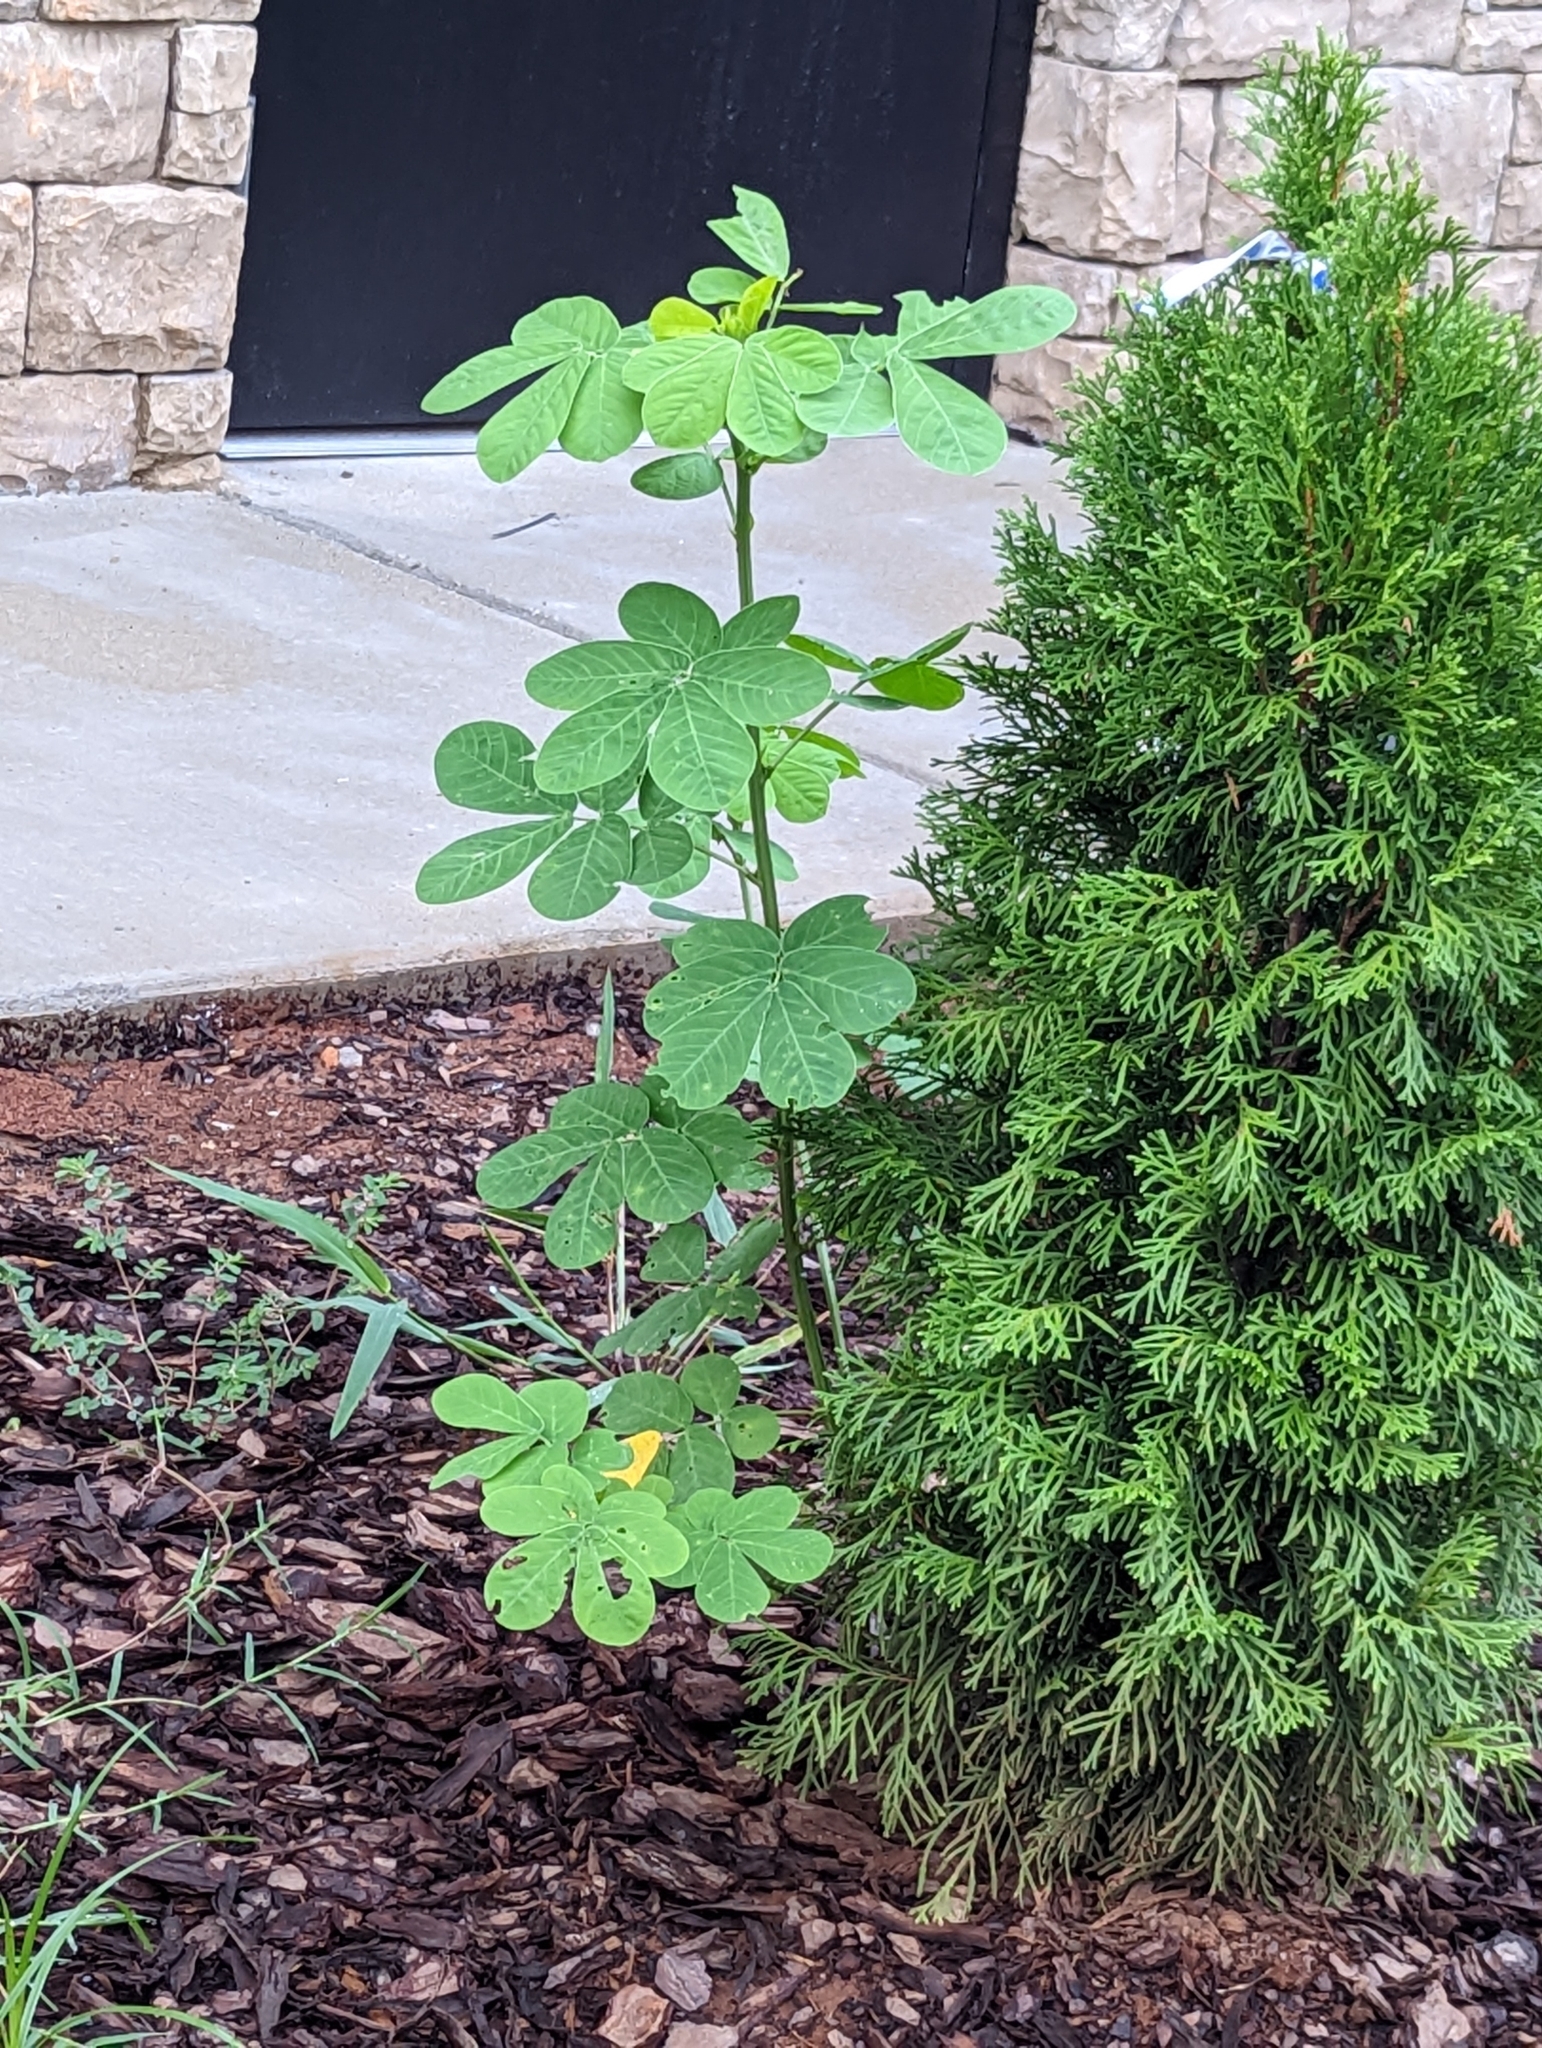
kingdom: Plantae
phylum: Tracheophyta
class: Magnoliopsida
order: Fabales
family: Fabaceae
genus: Senna
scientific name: Senna obtusifolia
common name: Java-bean
